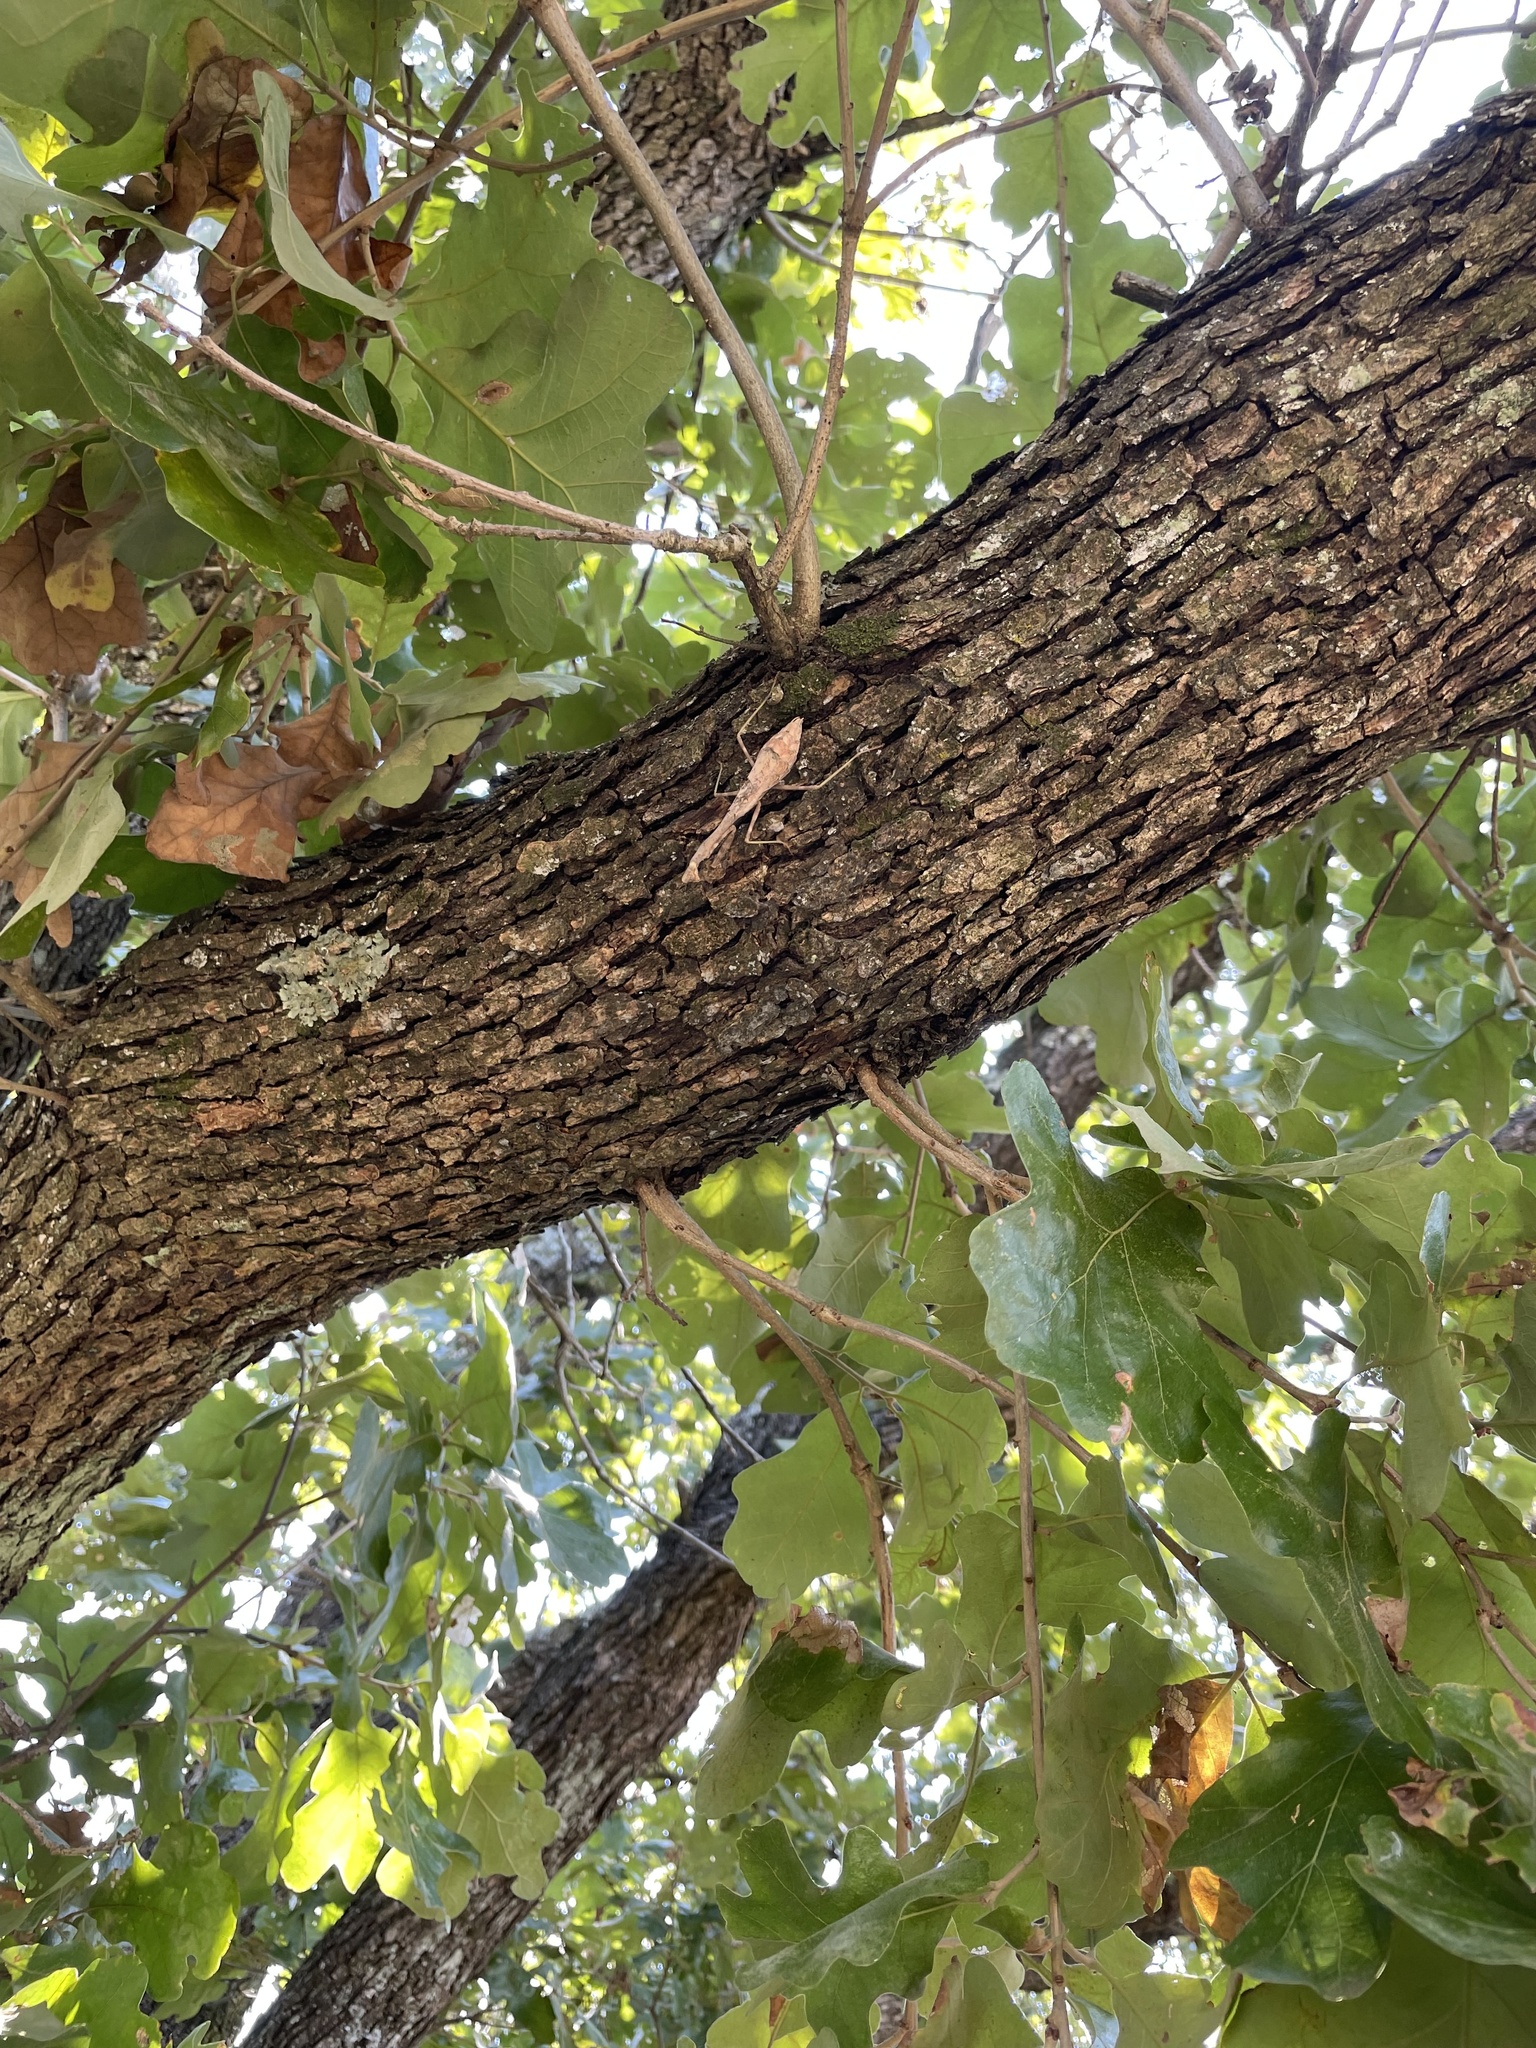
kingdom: Animalia
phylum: Arthropoda
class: Insecta
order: Mantodea
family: Mantidae
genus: Stagmomantis
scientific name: Stagmomantis carolina
